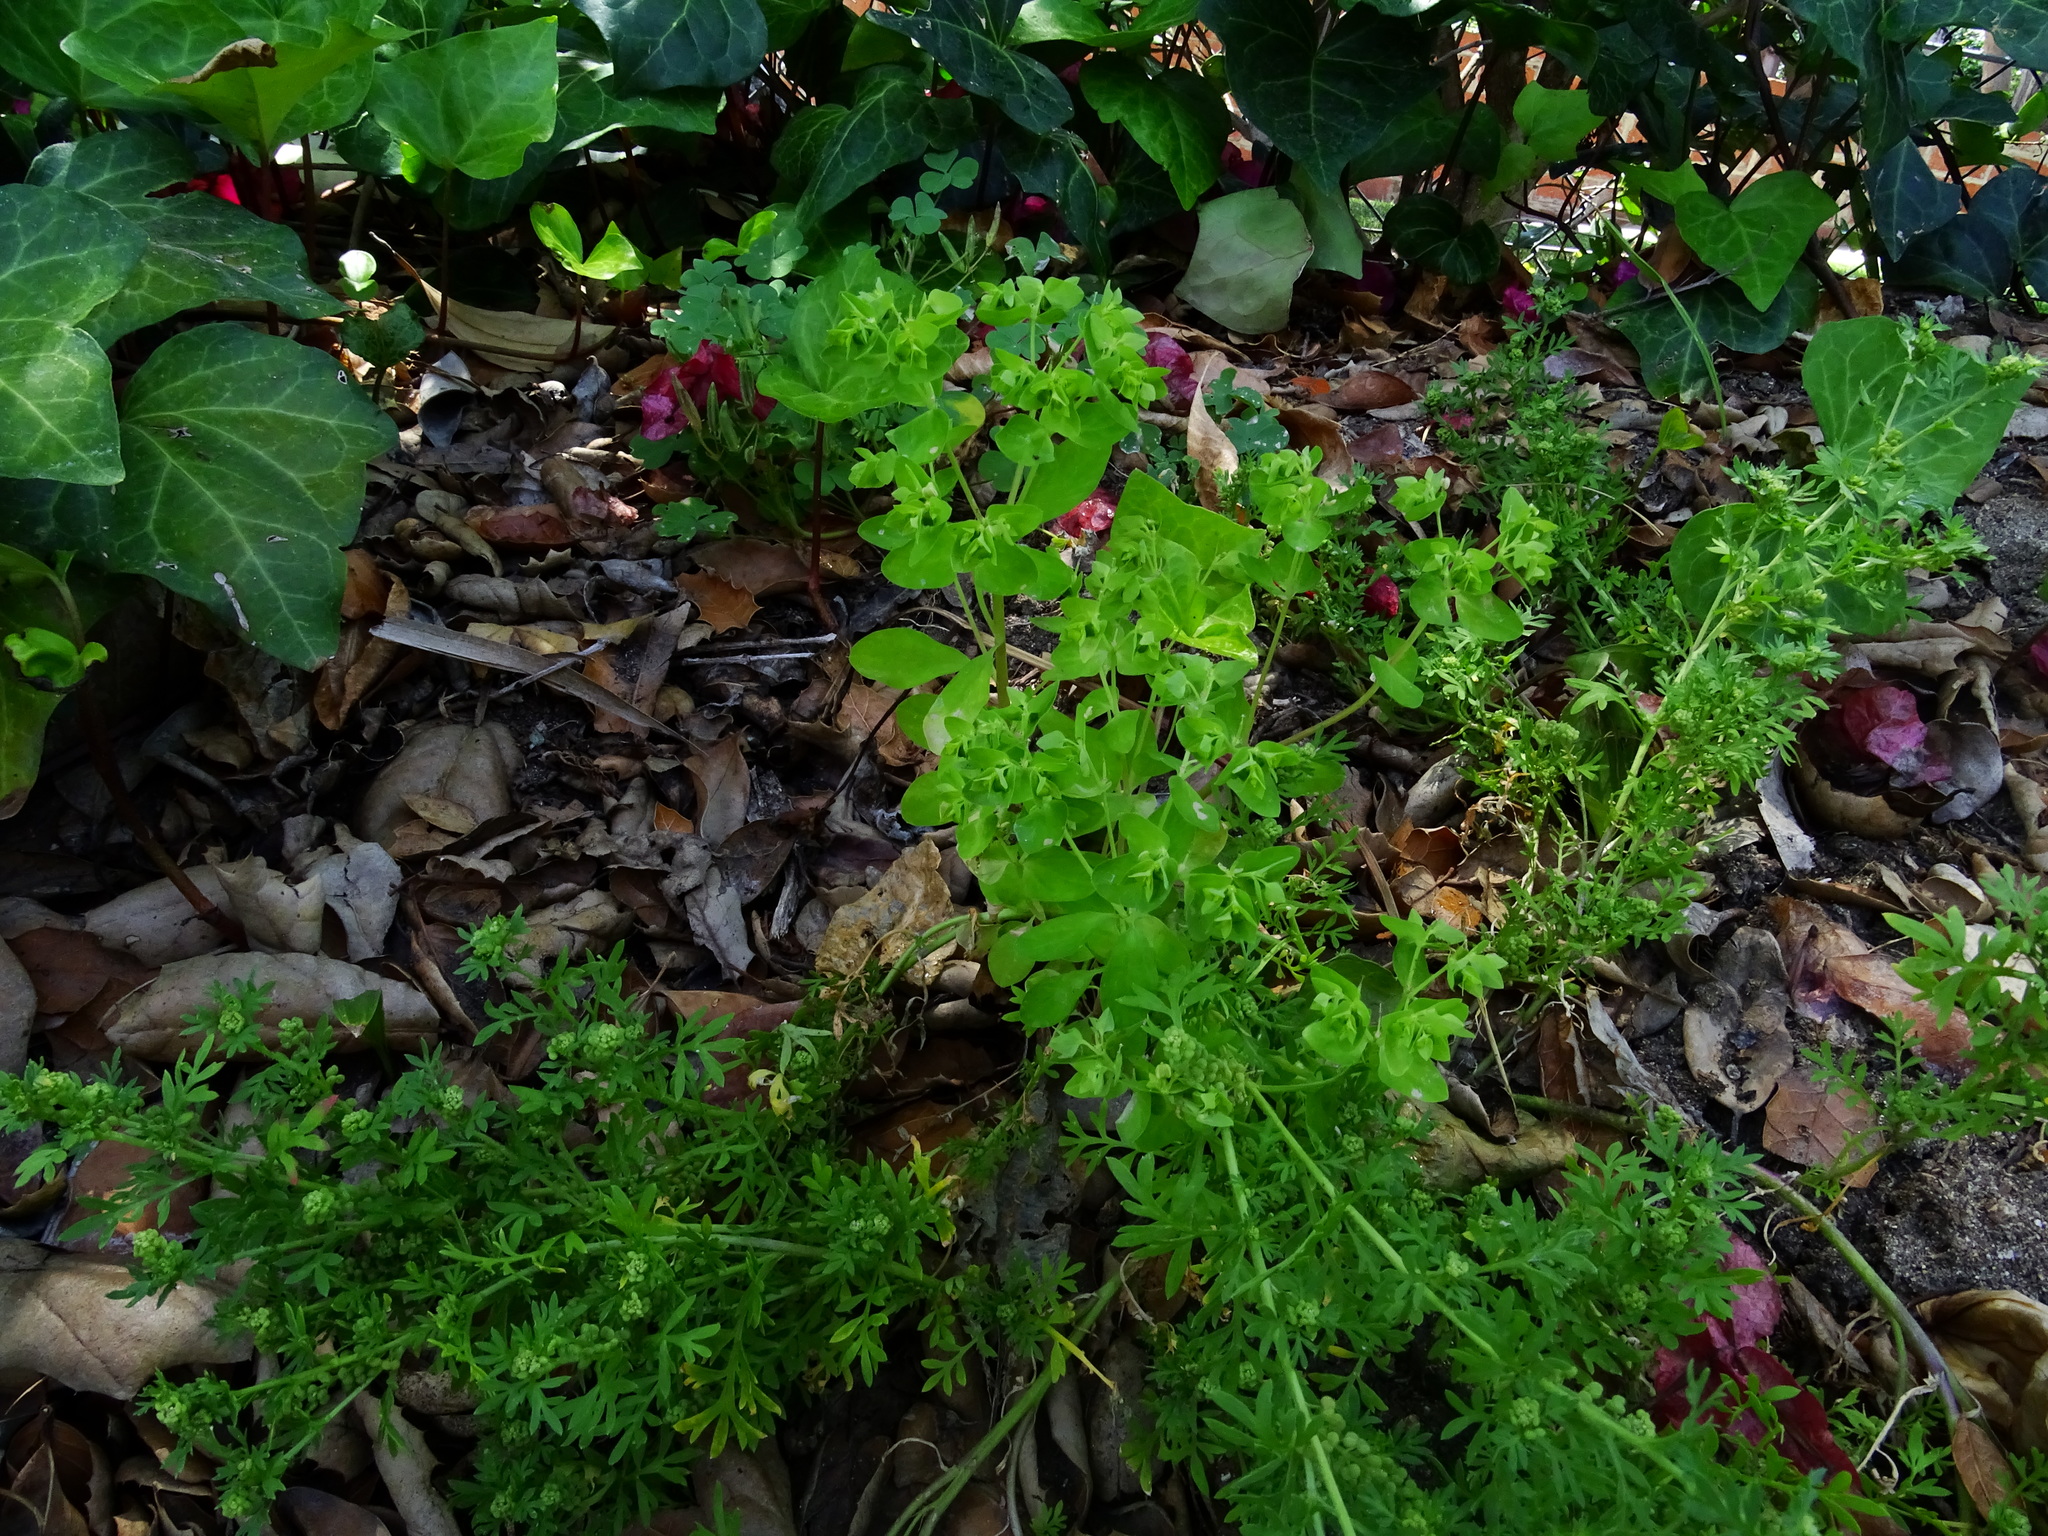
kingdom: Plantae
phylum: Tracheophyta
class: Magnoliopsida
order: Malpighiales
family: Euphorbiaceae
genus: Euphorbia
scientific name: Euphorbia peplus
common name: Petty spurge
